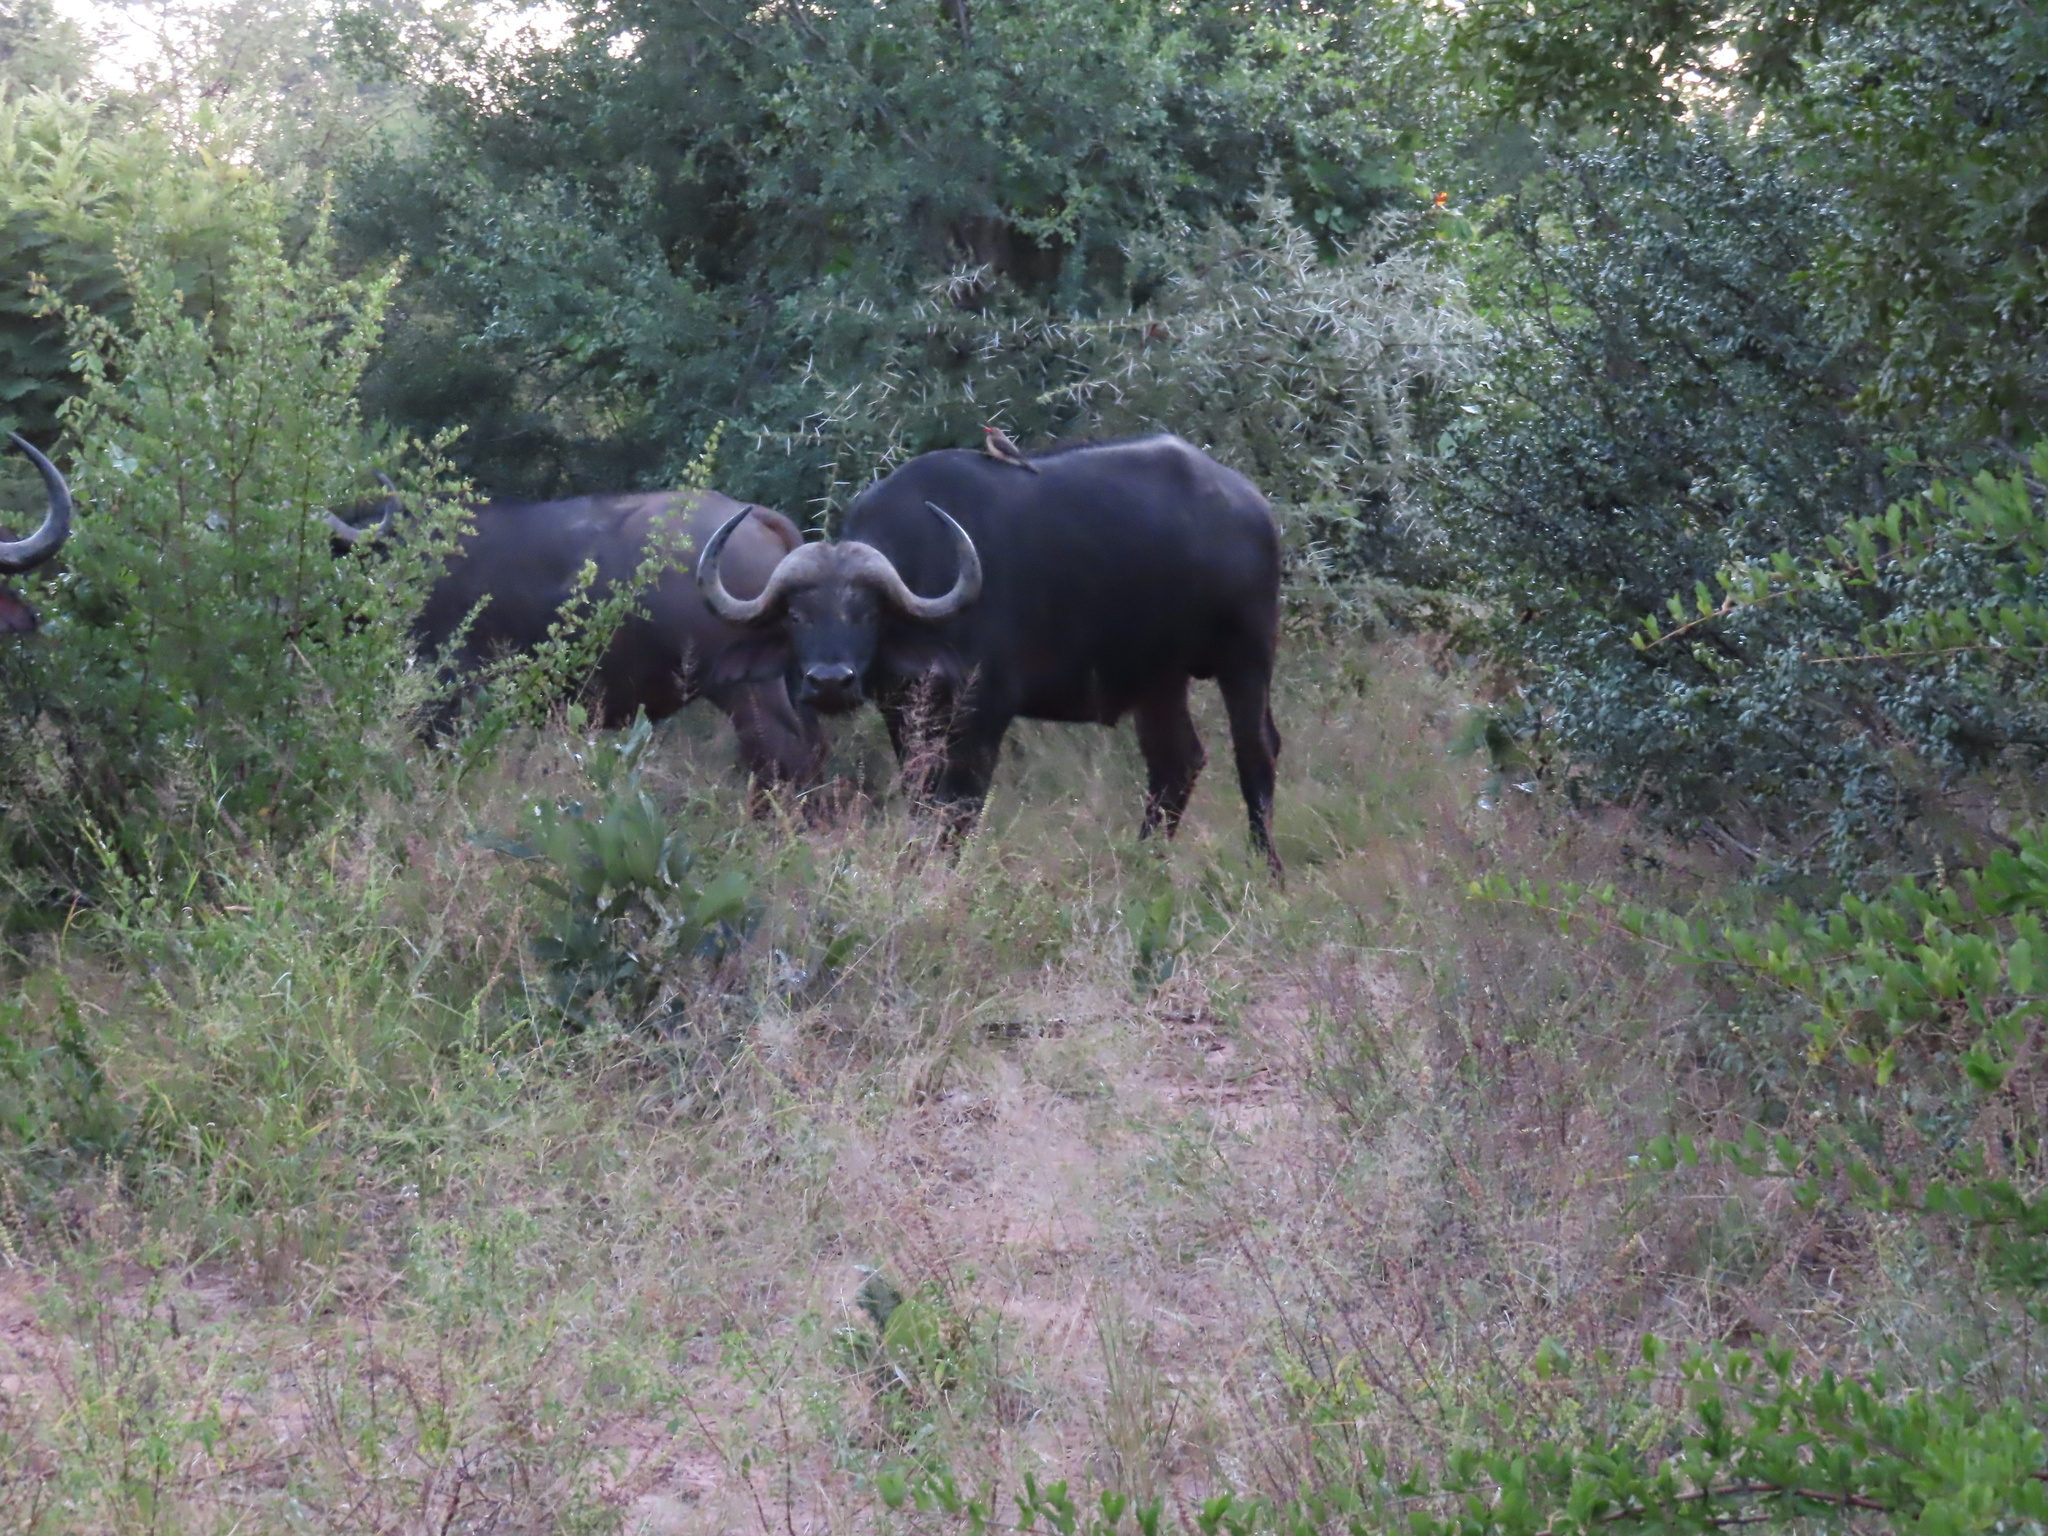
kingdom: Animalia
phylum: Chordata
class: Mammalia
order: Artiodactyla
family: Bovidae
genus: Syncerus
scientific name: Syncerus caffer
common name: African buffalo
